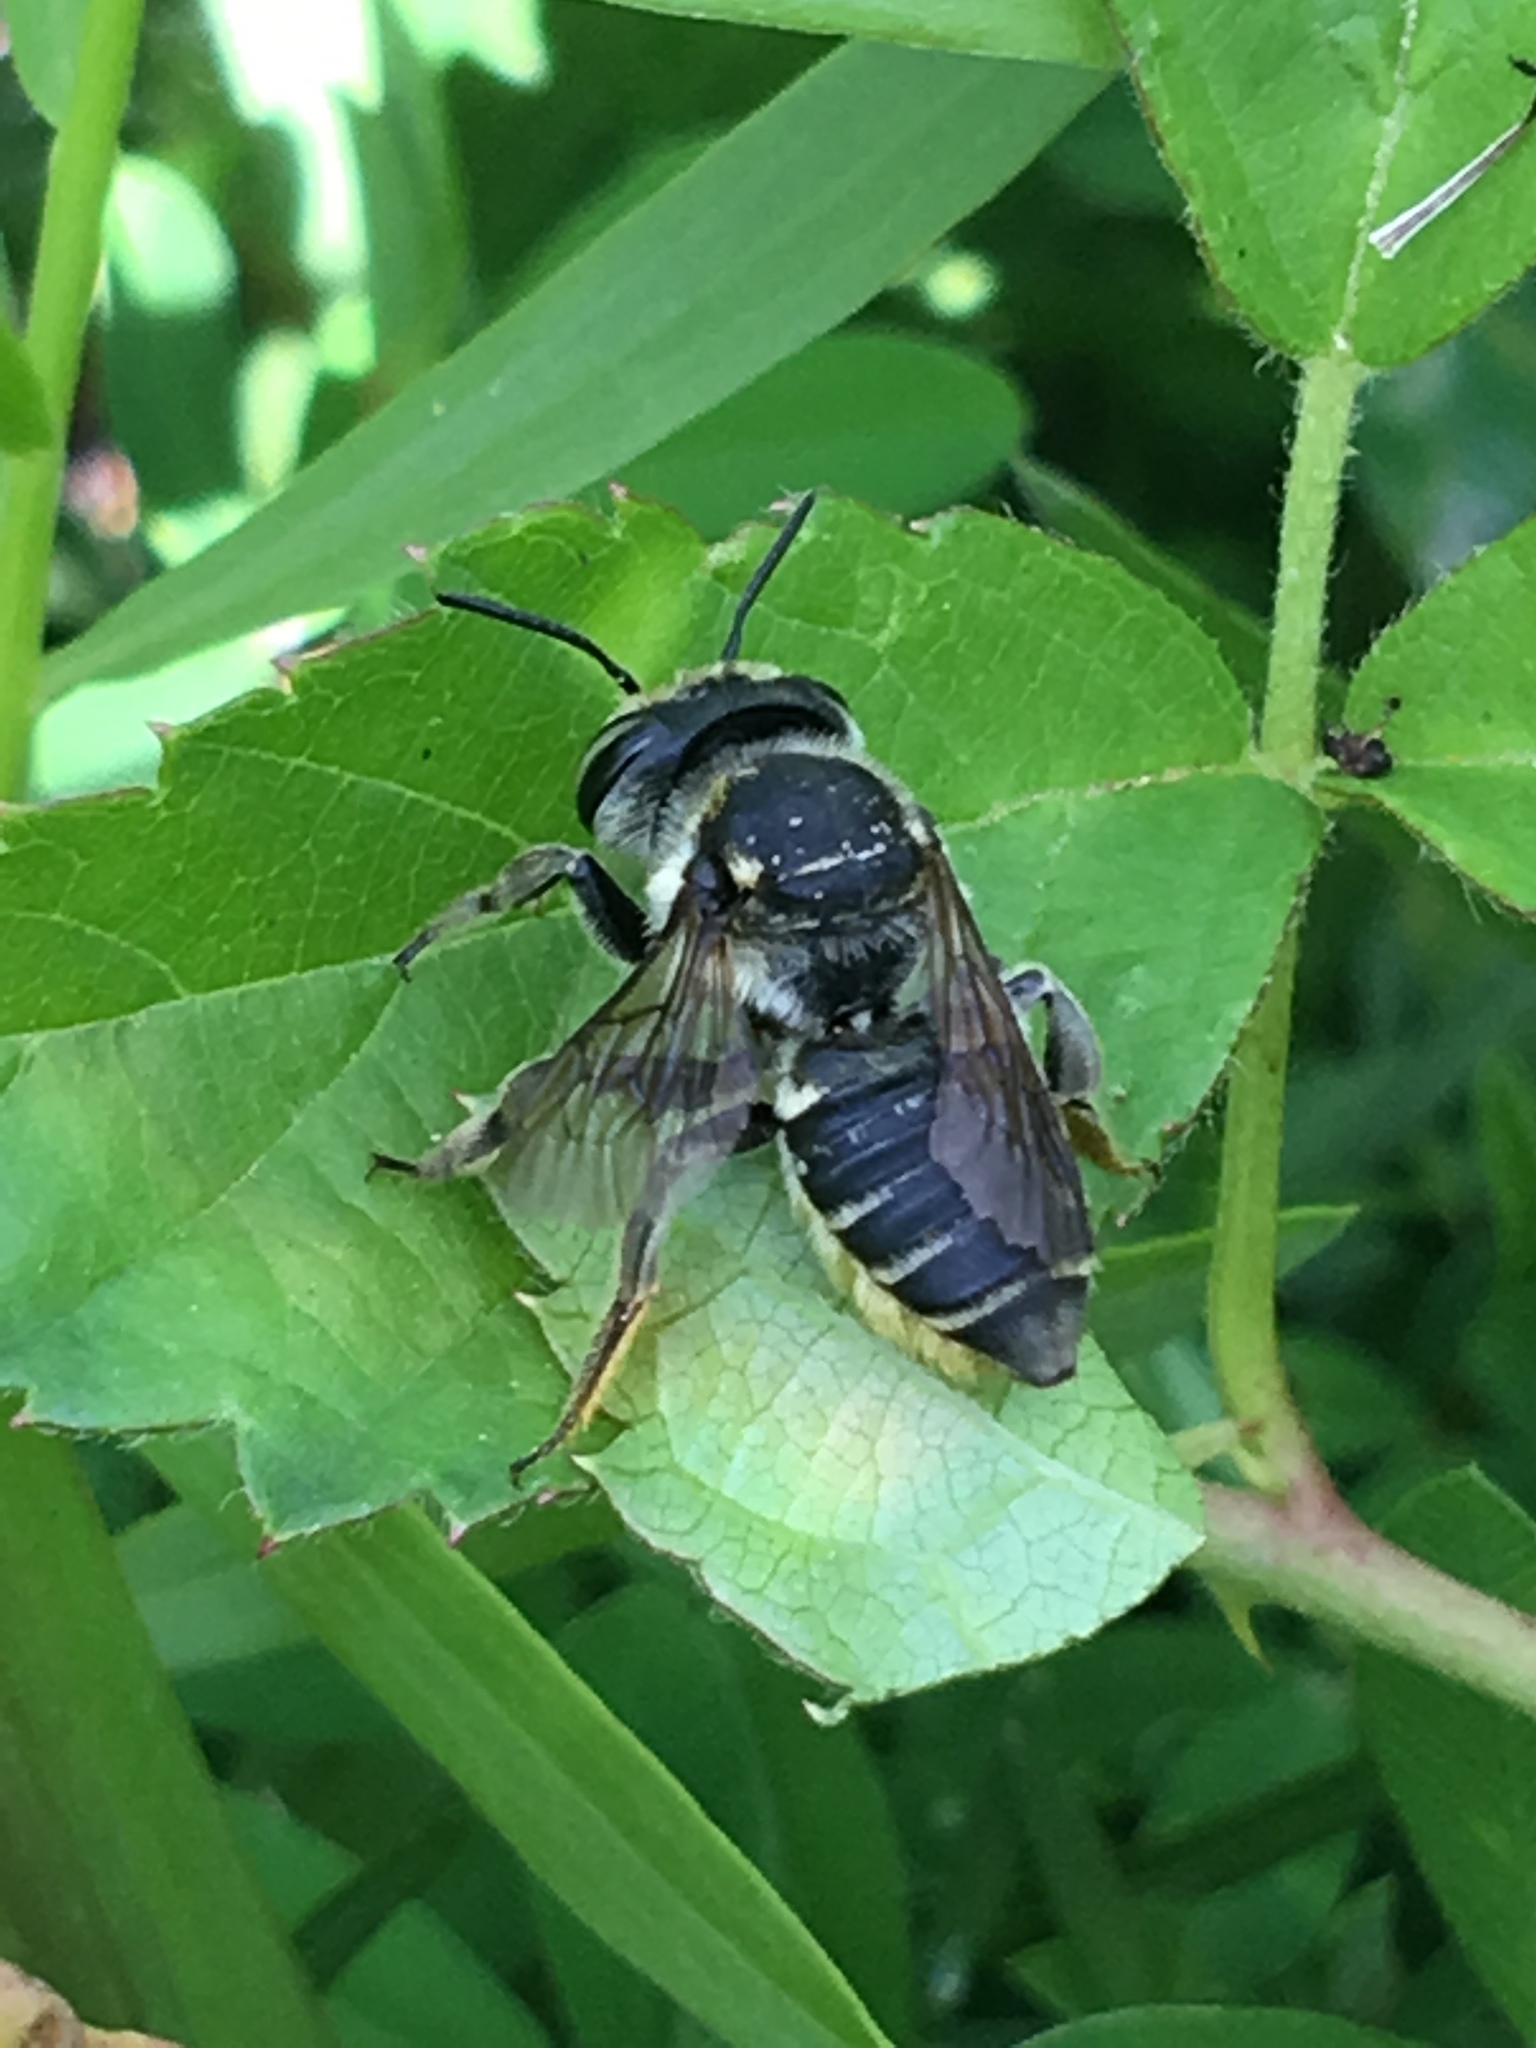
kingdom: Animalia
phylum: Arthropoda
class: Insecta
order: Hymenoptera
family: Megachilidae
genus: Megachile
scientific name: Megachile
